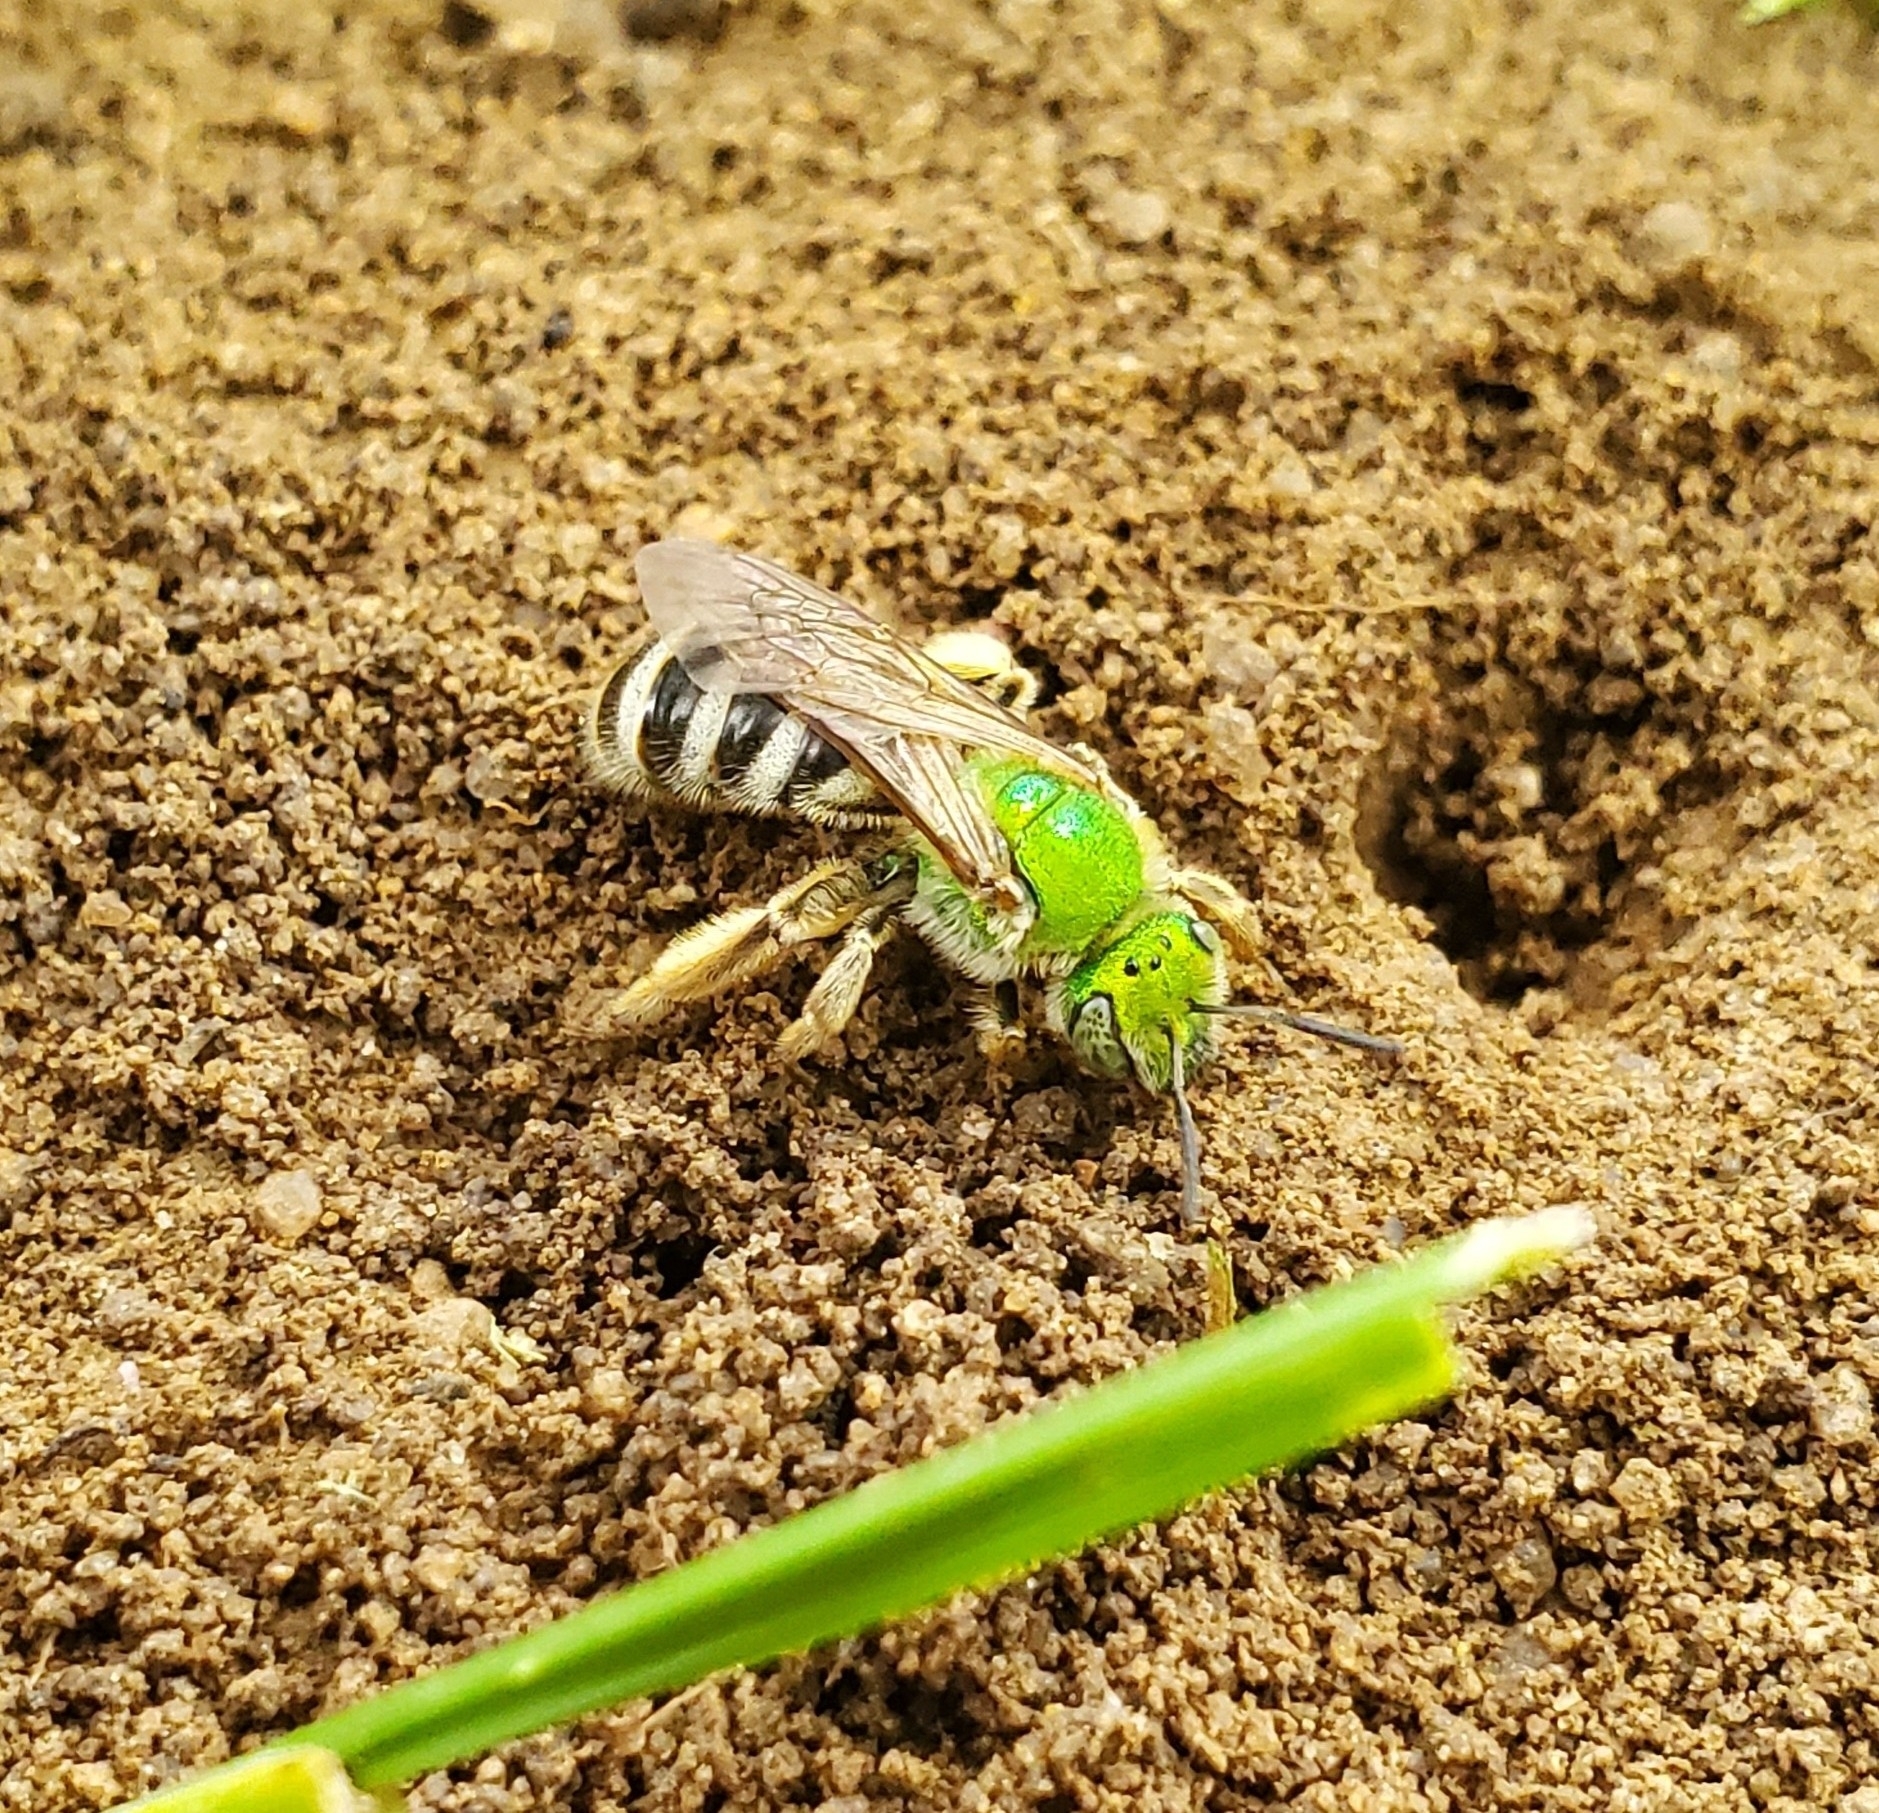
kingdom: Animalia
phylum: Arthropoda
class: Insecta
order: Hymenoptera
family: Halictidae
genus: Agapostemon
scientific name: Agapostemon virescens
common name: Bicolored striped sweat bee
